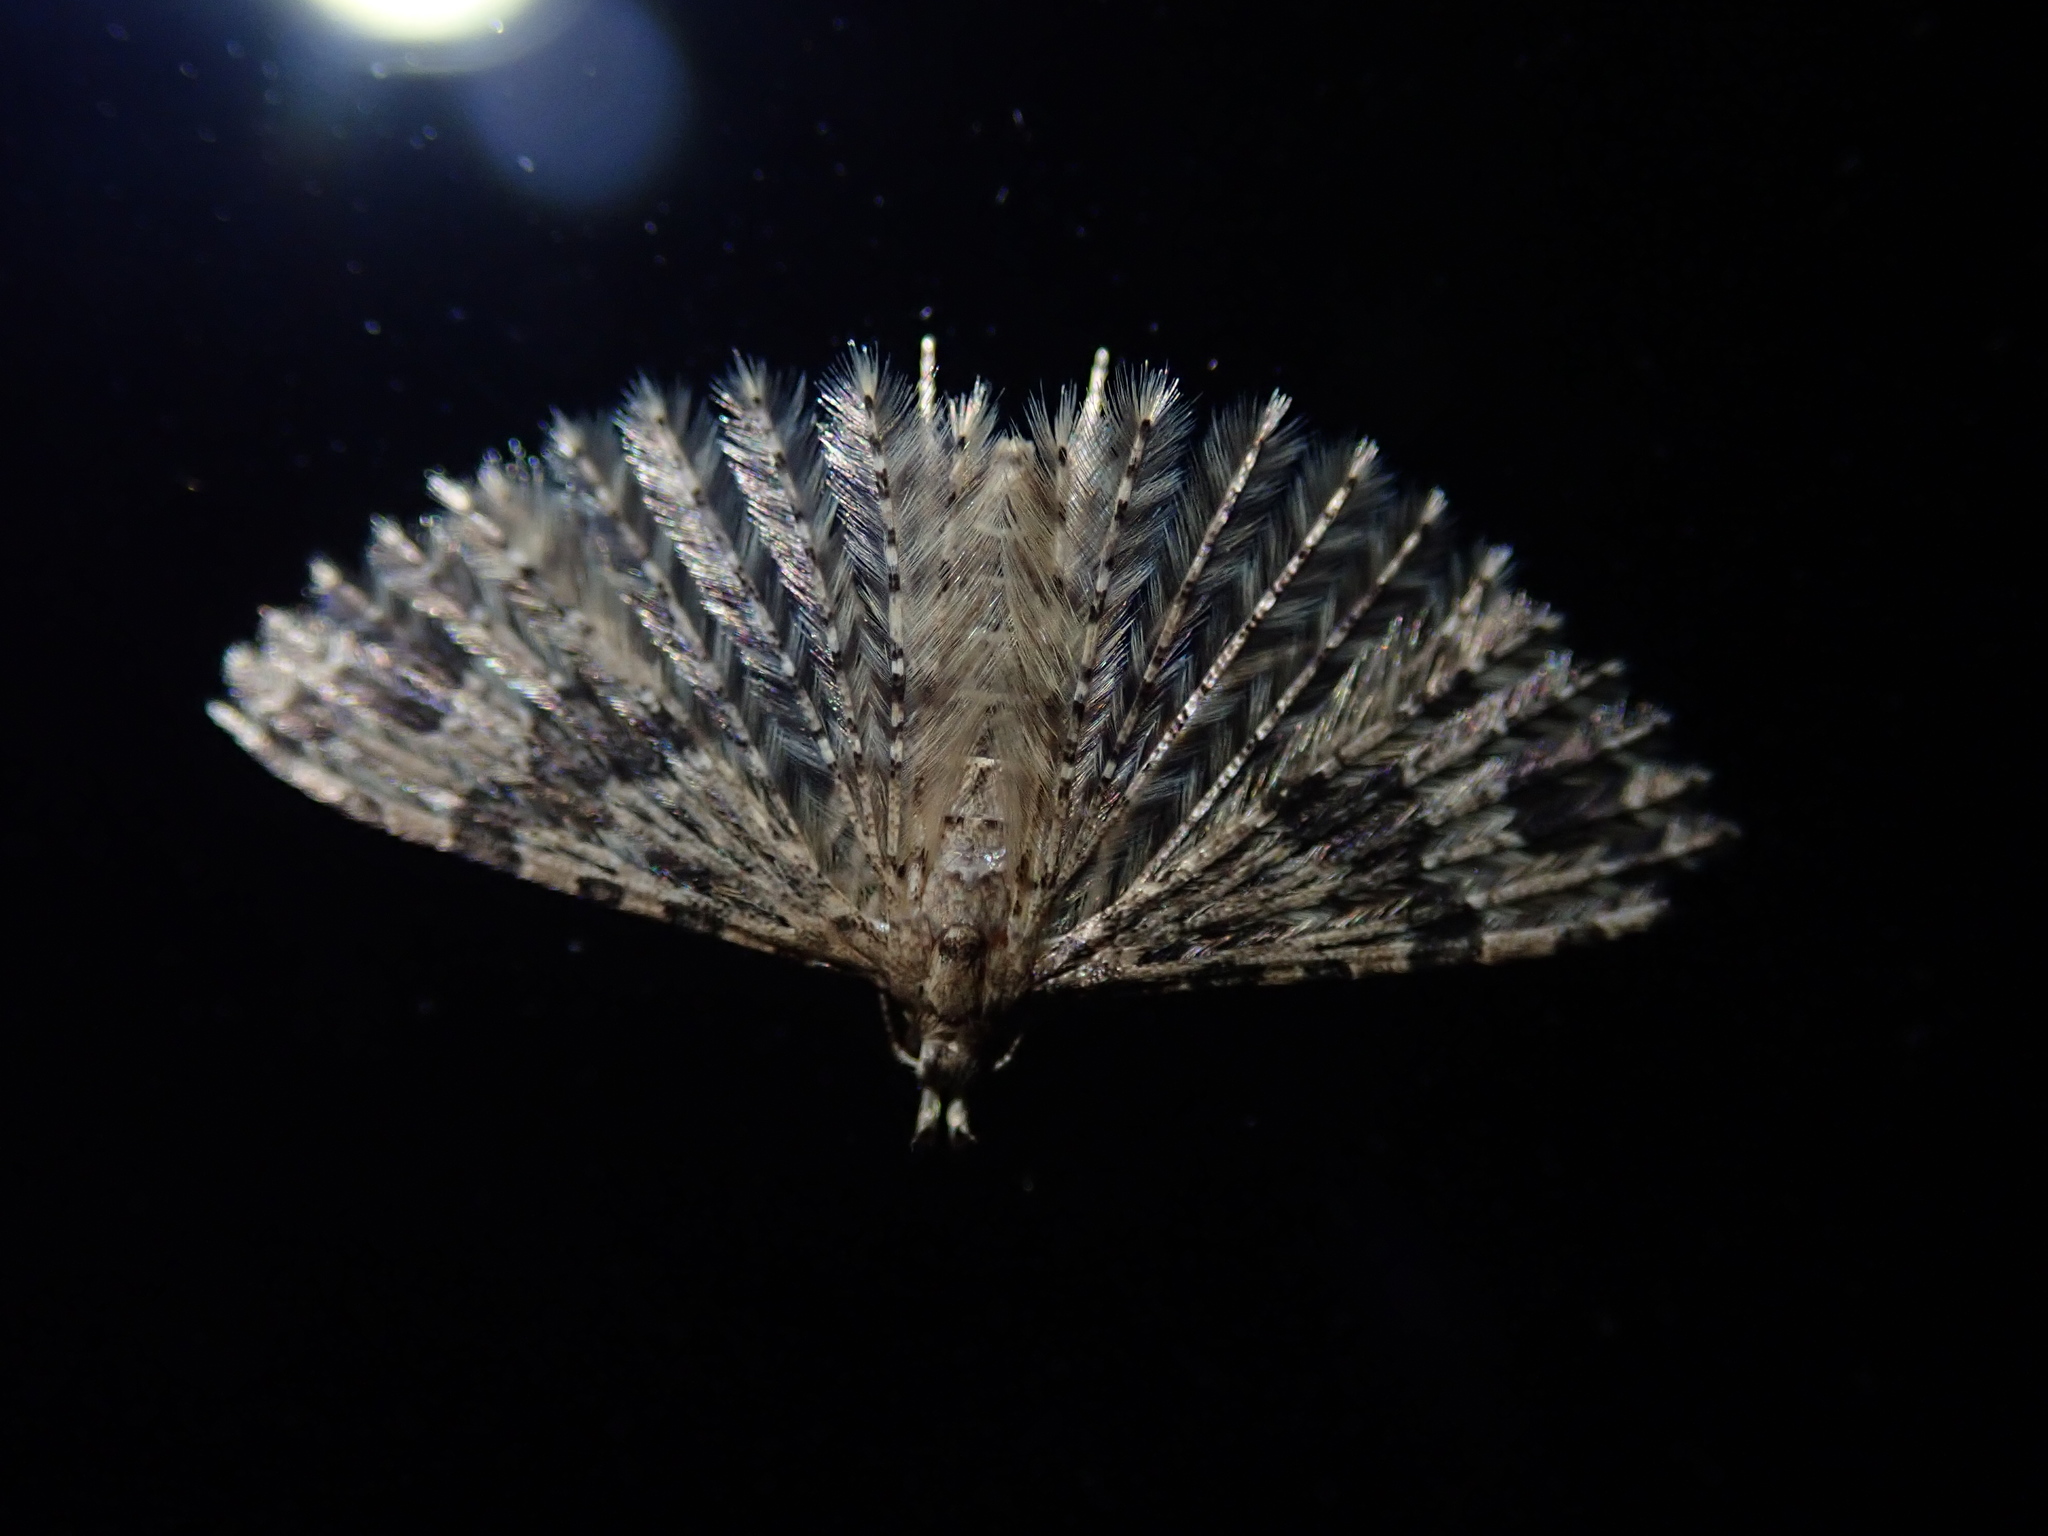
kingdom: Animalia
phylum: Arthropoda
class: Insecta
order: Lepidoptera
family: Alucitidae
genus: Alucita
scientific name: Alucita hexadactyla
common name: Twenty-plume moth
